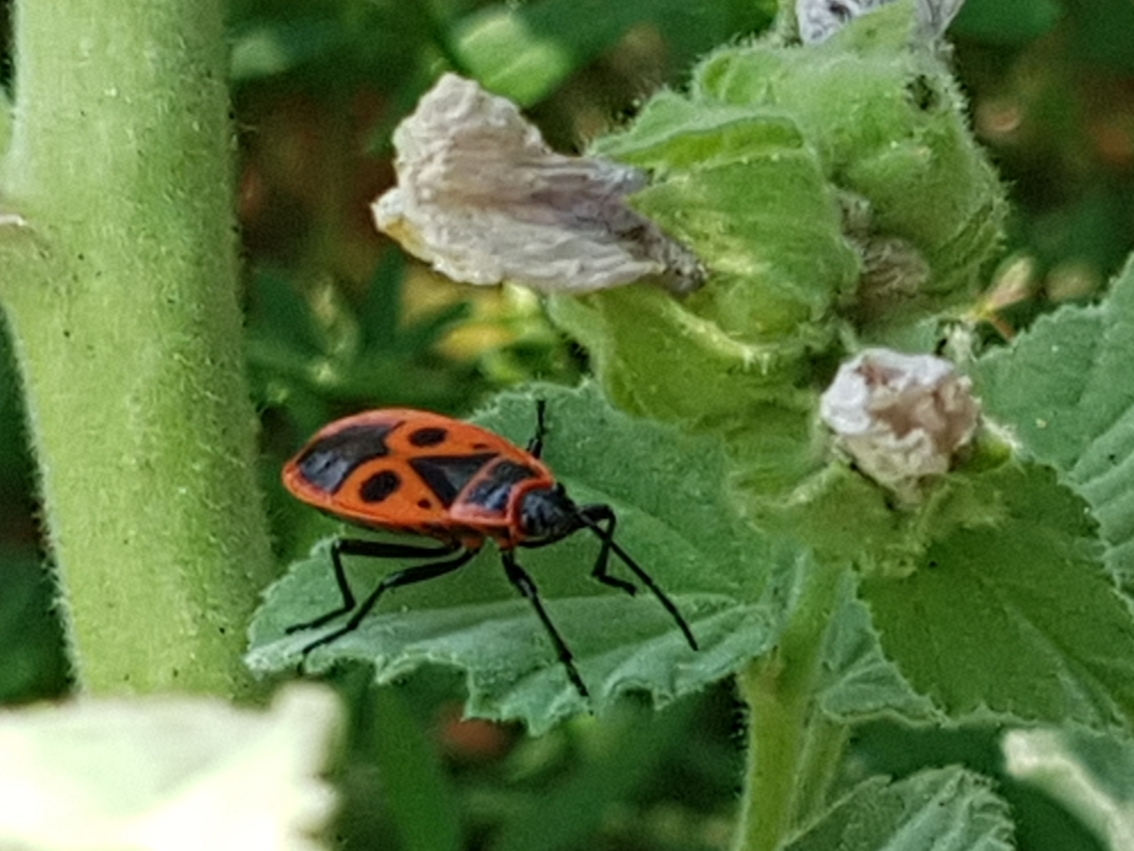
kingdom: Animalia
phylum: Arthropoda
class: Insecta
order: Hemiptera
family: Pyrrhocoridae
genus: Pyrrhocoris
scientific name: Pyrrhocoris apterus
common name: Firebug
